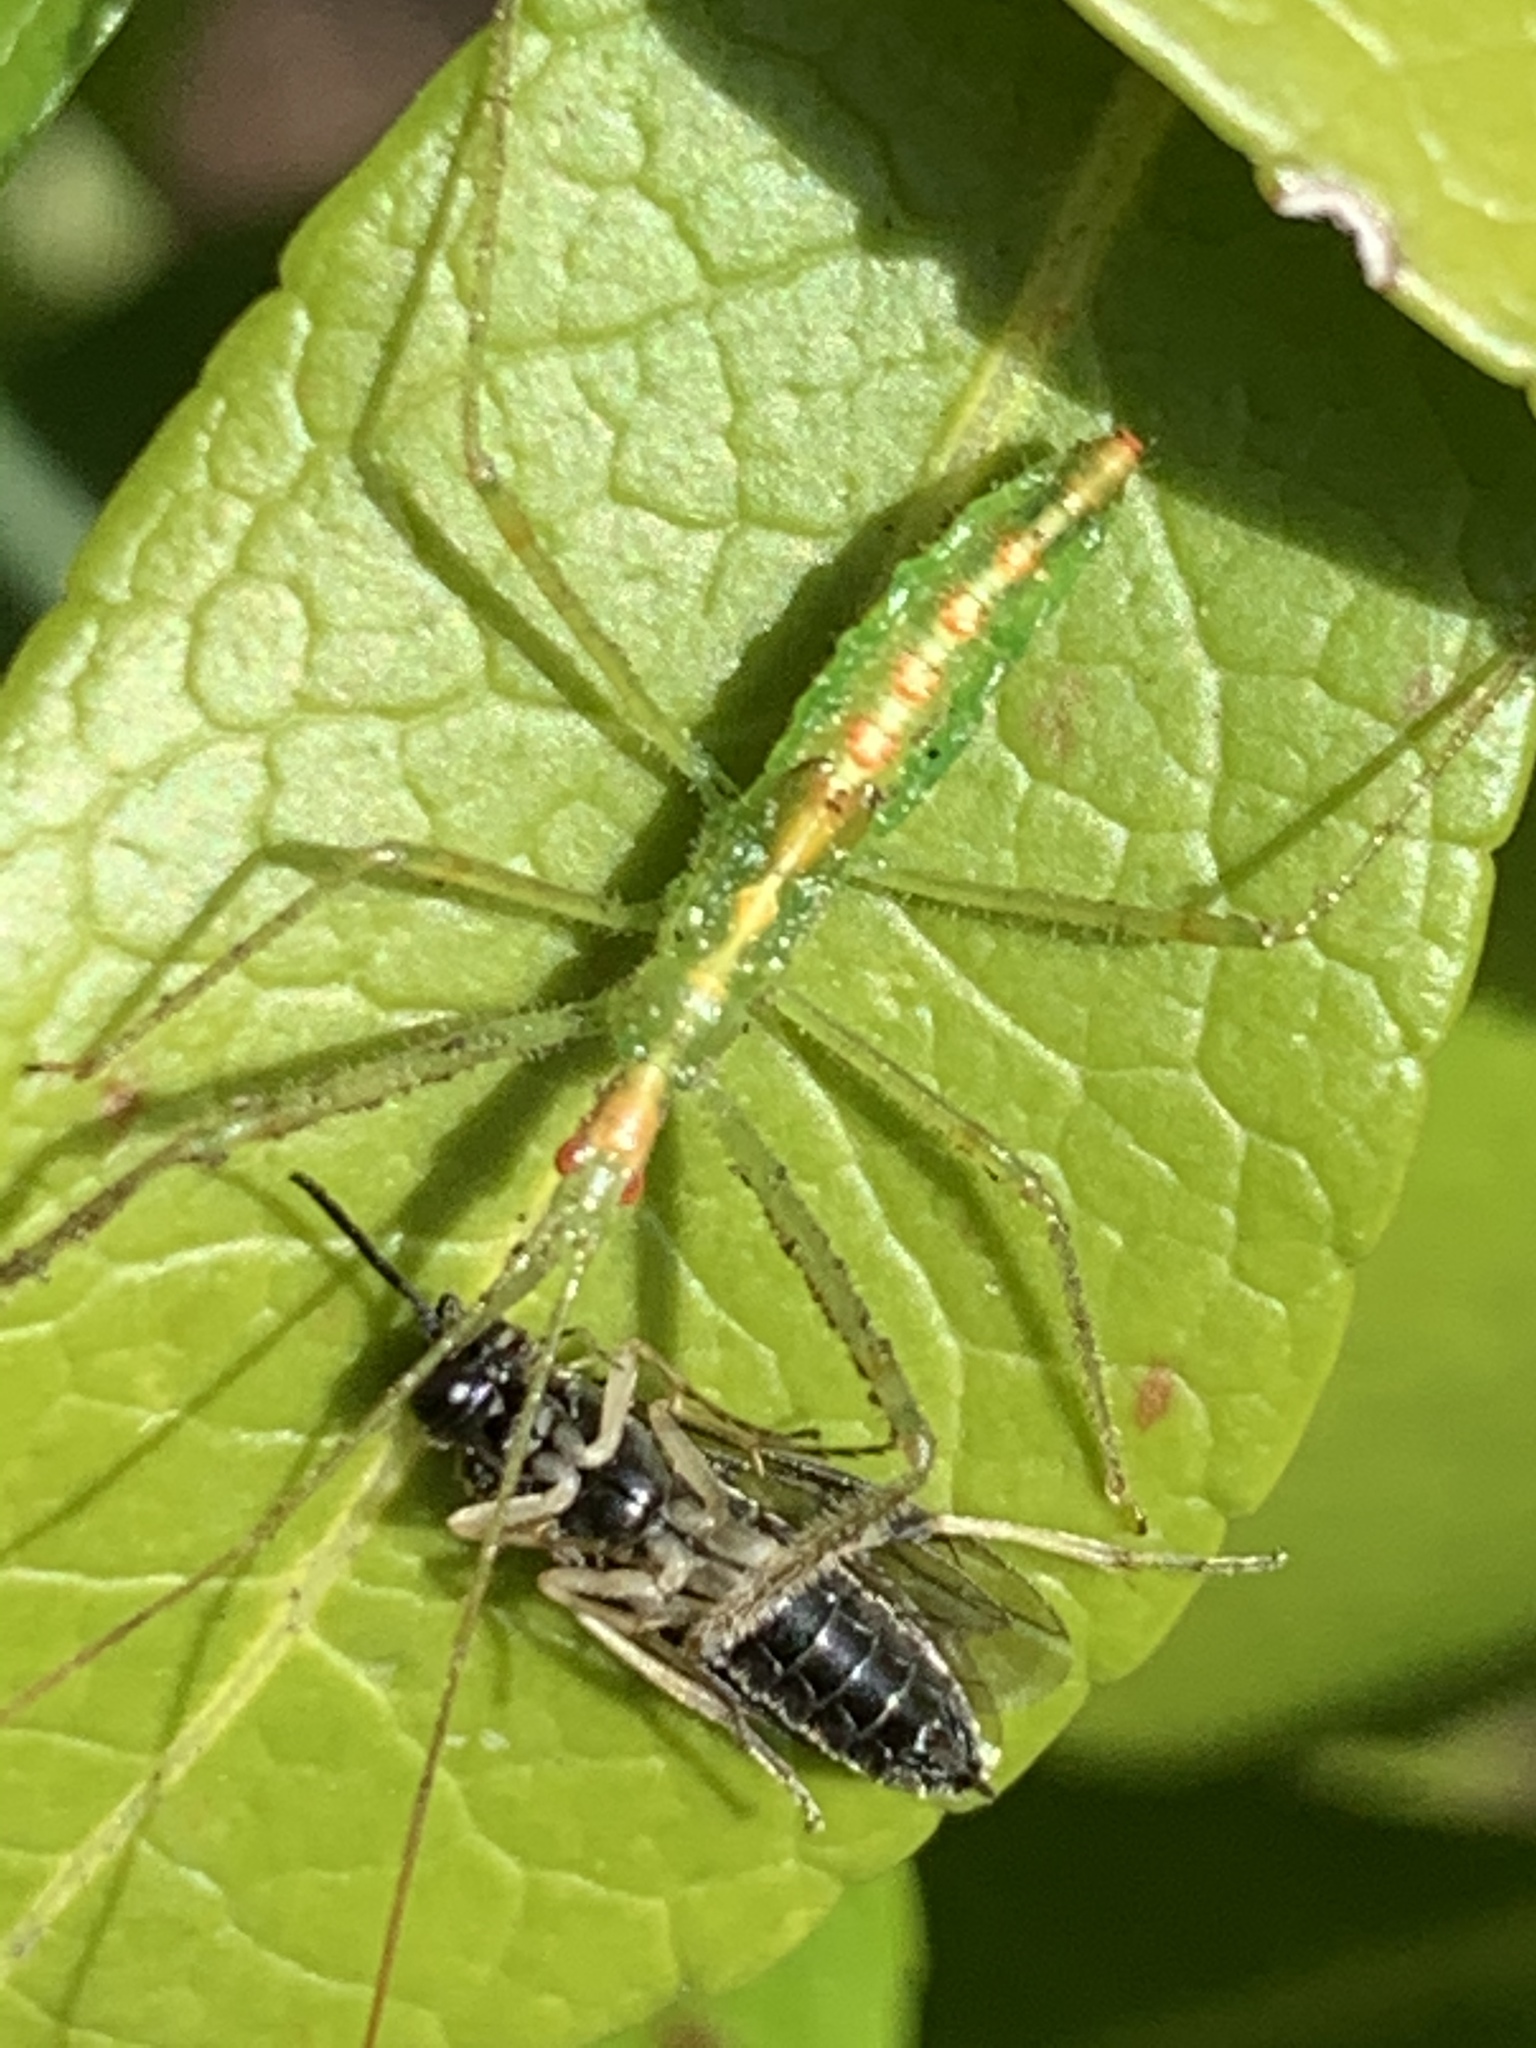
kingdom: Animalia
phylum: Arthropoda
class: Insecta
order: Hemiptera
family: Reduviidae
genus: Zelus
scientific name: Zelus luridus
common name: Pale green assassin bug
